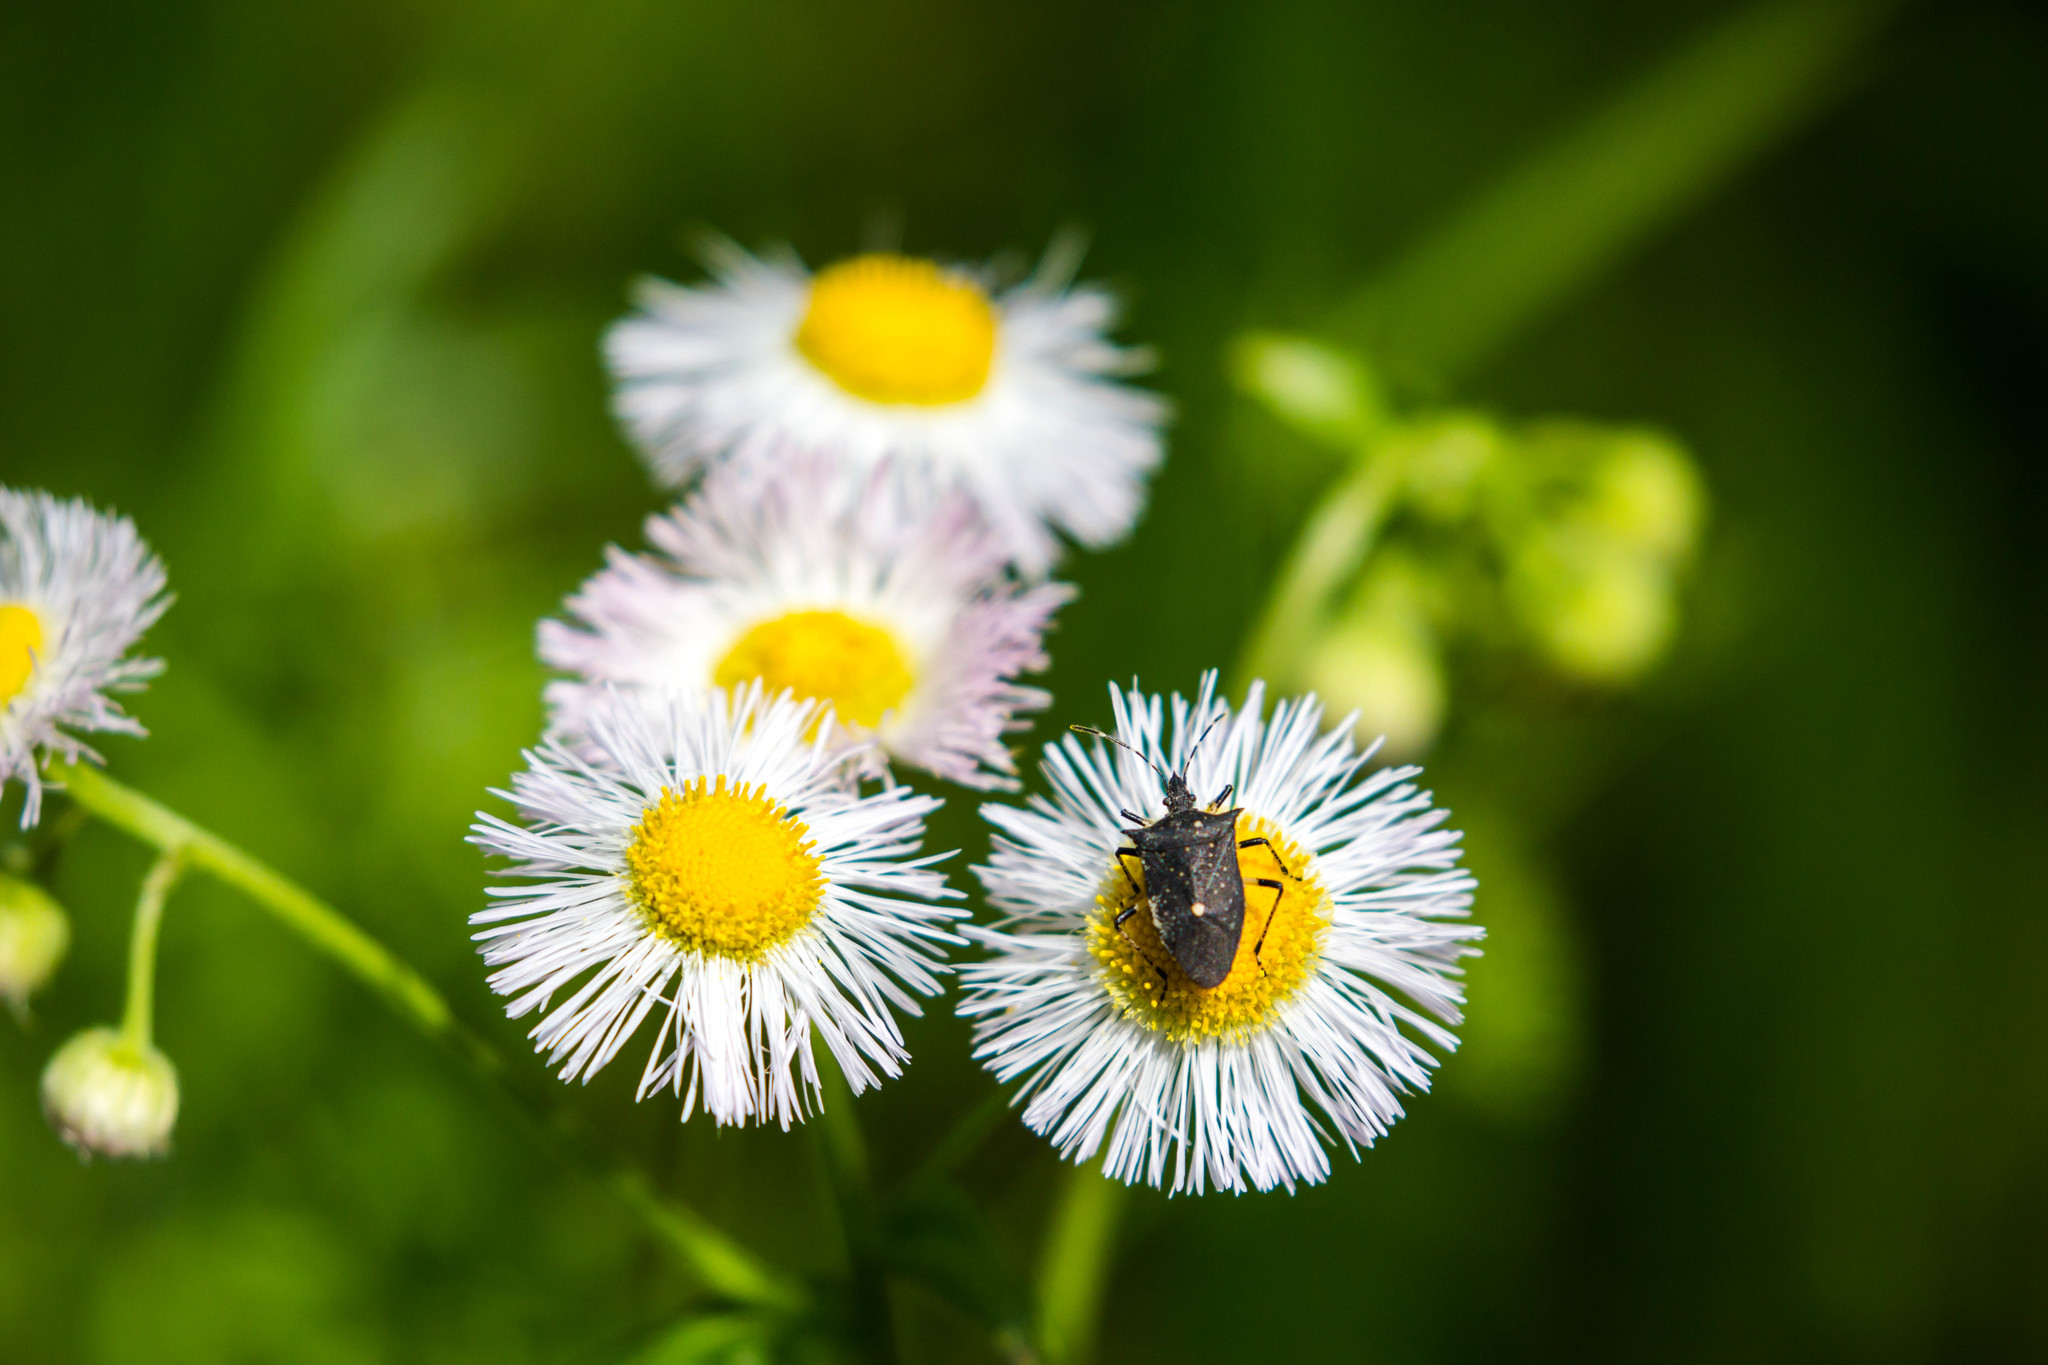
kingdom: Animalia
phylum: Arthropoda
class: Insecta
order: Hemiptera
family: Pentatomidae
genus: Proxys
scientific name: Proxys punctulatus
